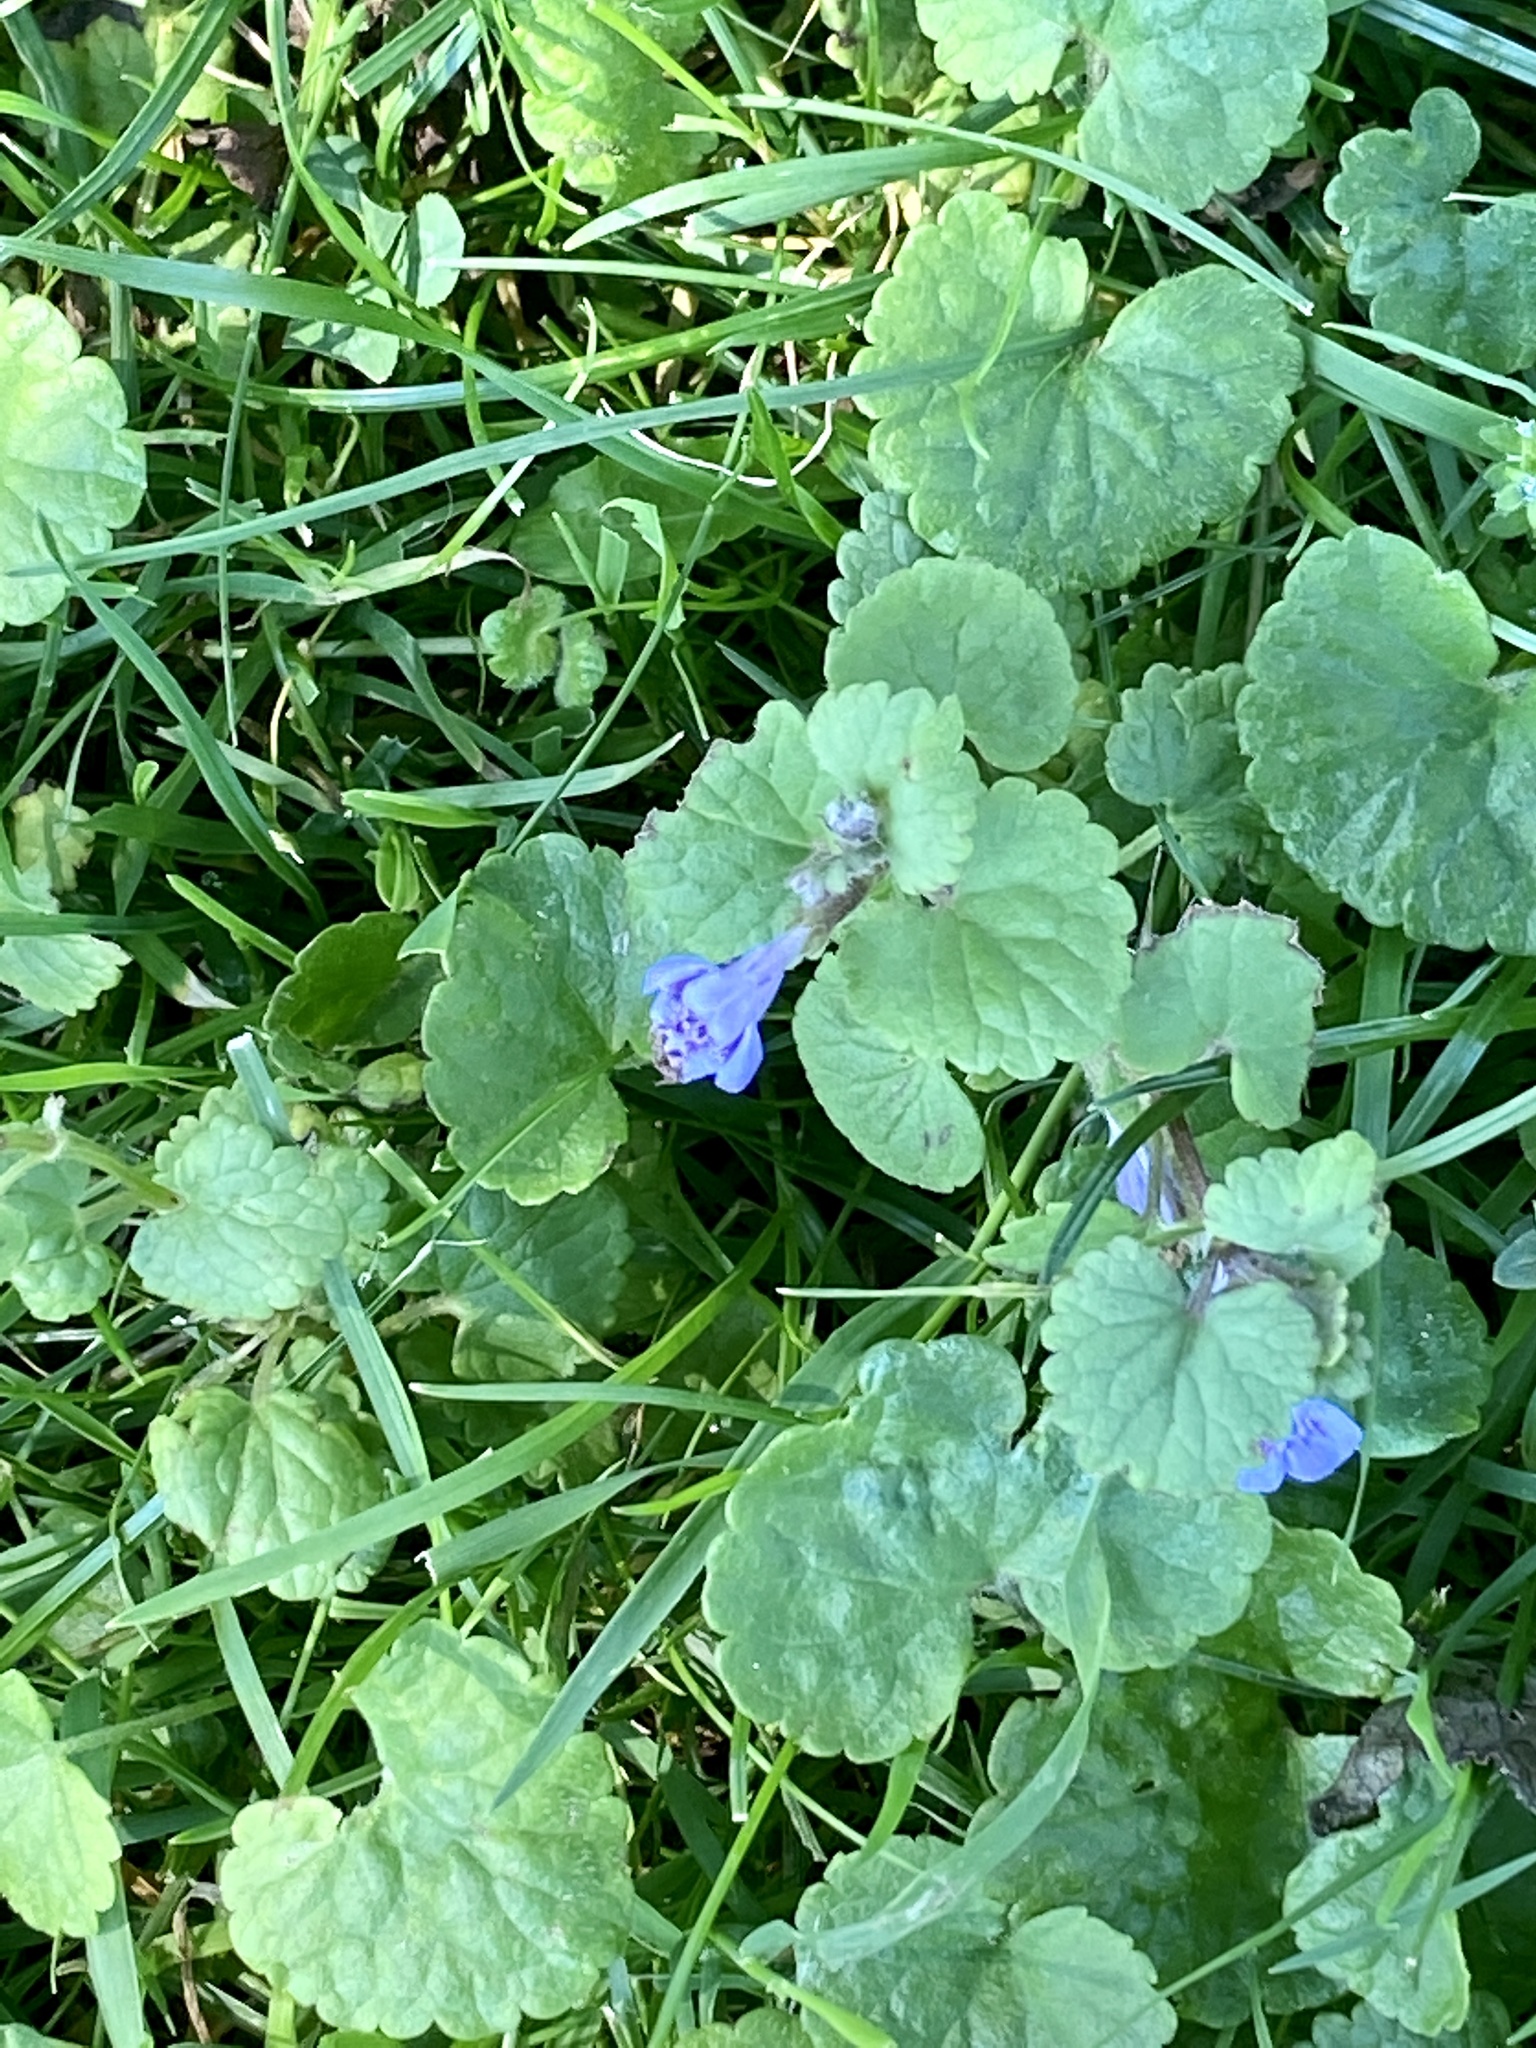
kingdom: Plantae
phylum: Tracheophyta
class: Magnoliopsida
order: Lamiales
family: Lamiaceae
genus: Glechoma
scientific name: Glechoma hederacea
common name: Ground ivy
